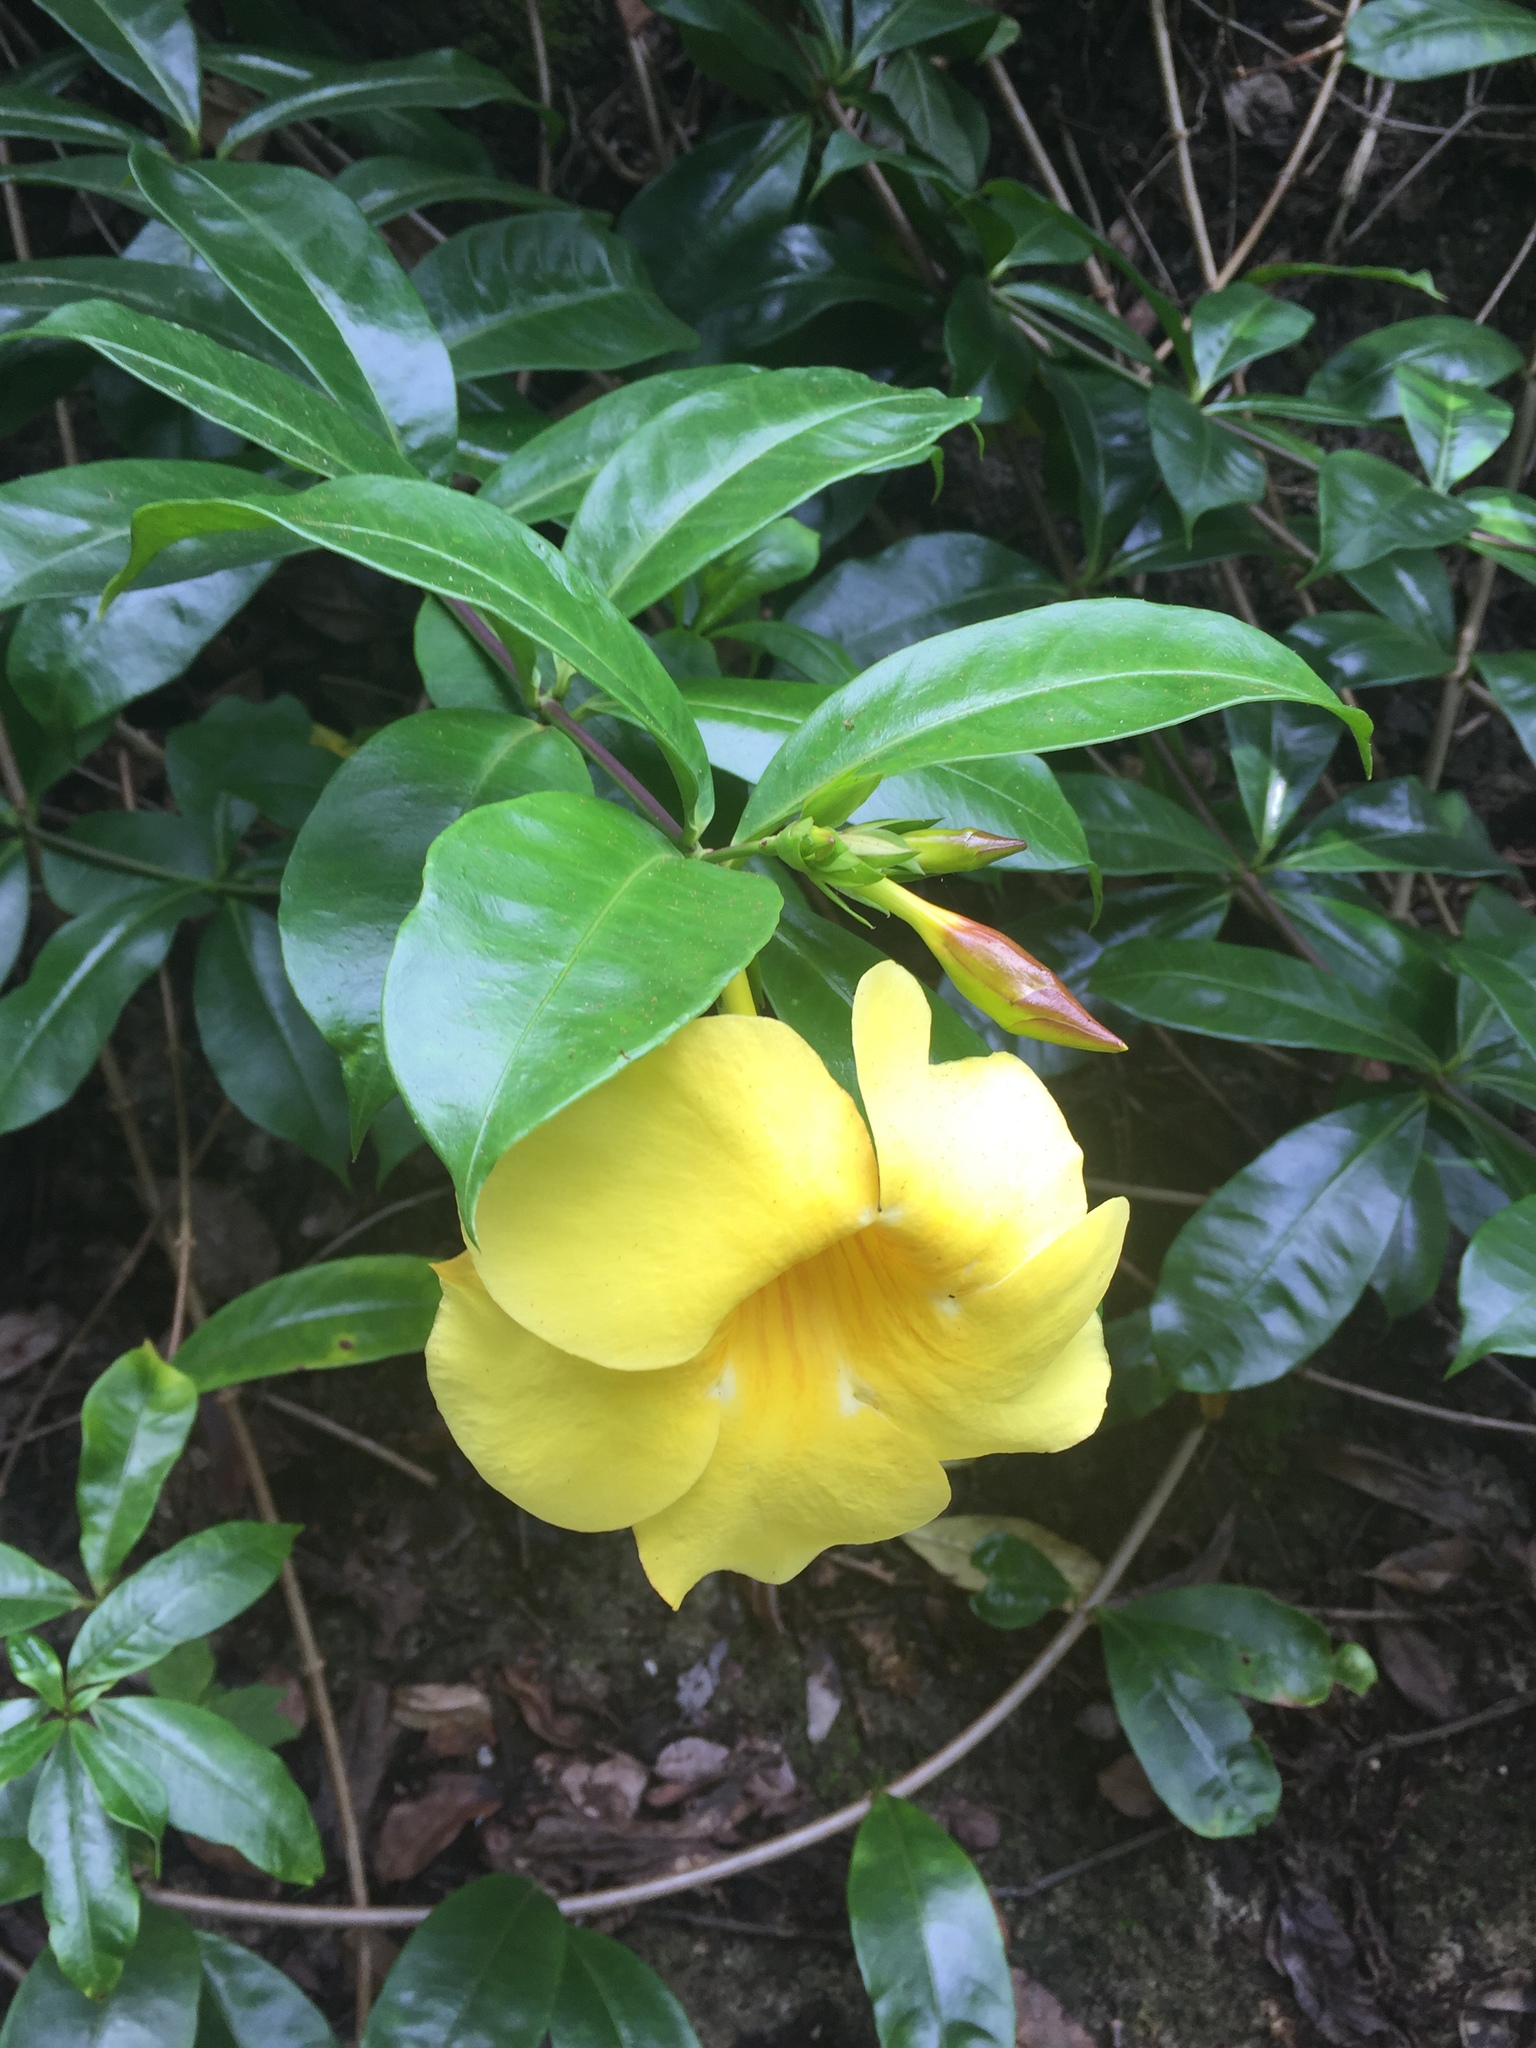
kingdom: Plantae
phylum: Tracheophyta
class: Magnoliopsida
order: Gentianales
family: Apocynaceae
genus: Allamanda
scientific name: Allamanda cathartica
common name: Golden trumpet
